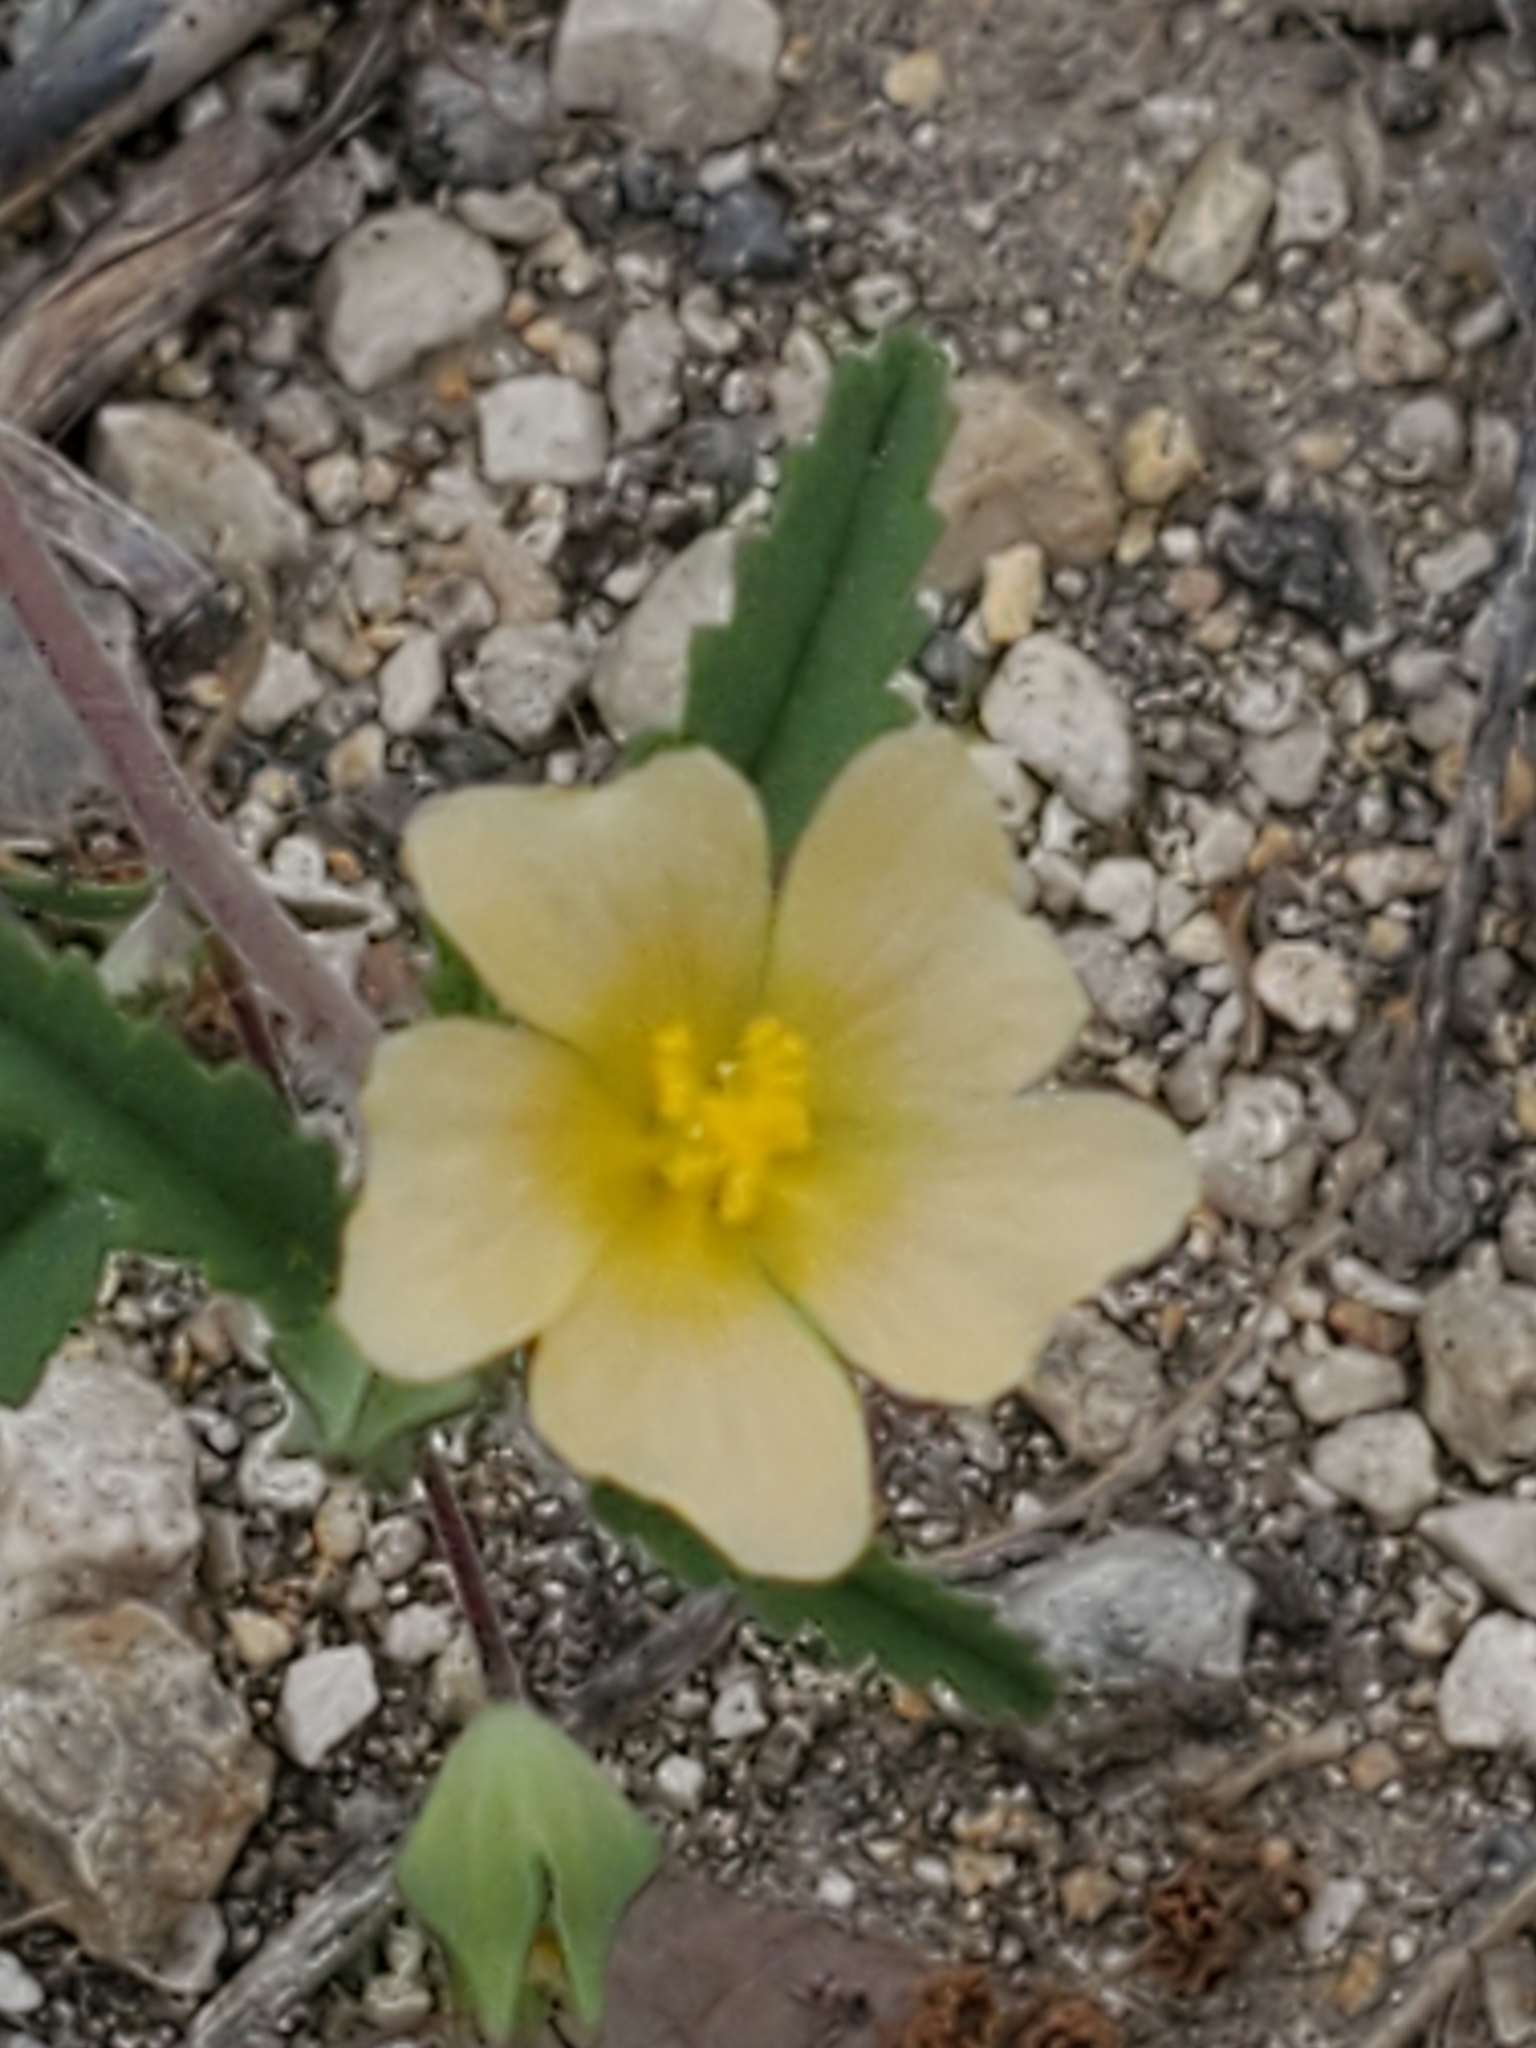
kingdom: Plantae
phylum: Tracheophyta
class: Magnoliopsida
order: Malvales
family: Malvaceae
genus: Sida
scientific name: Sida abutilifolia
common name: Spreading fanpetals
